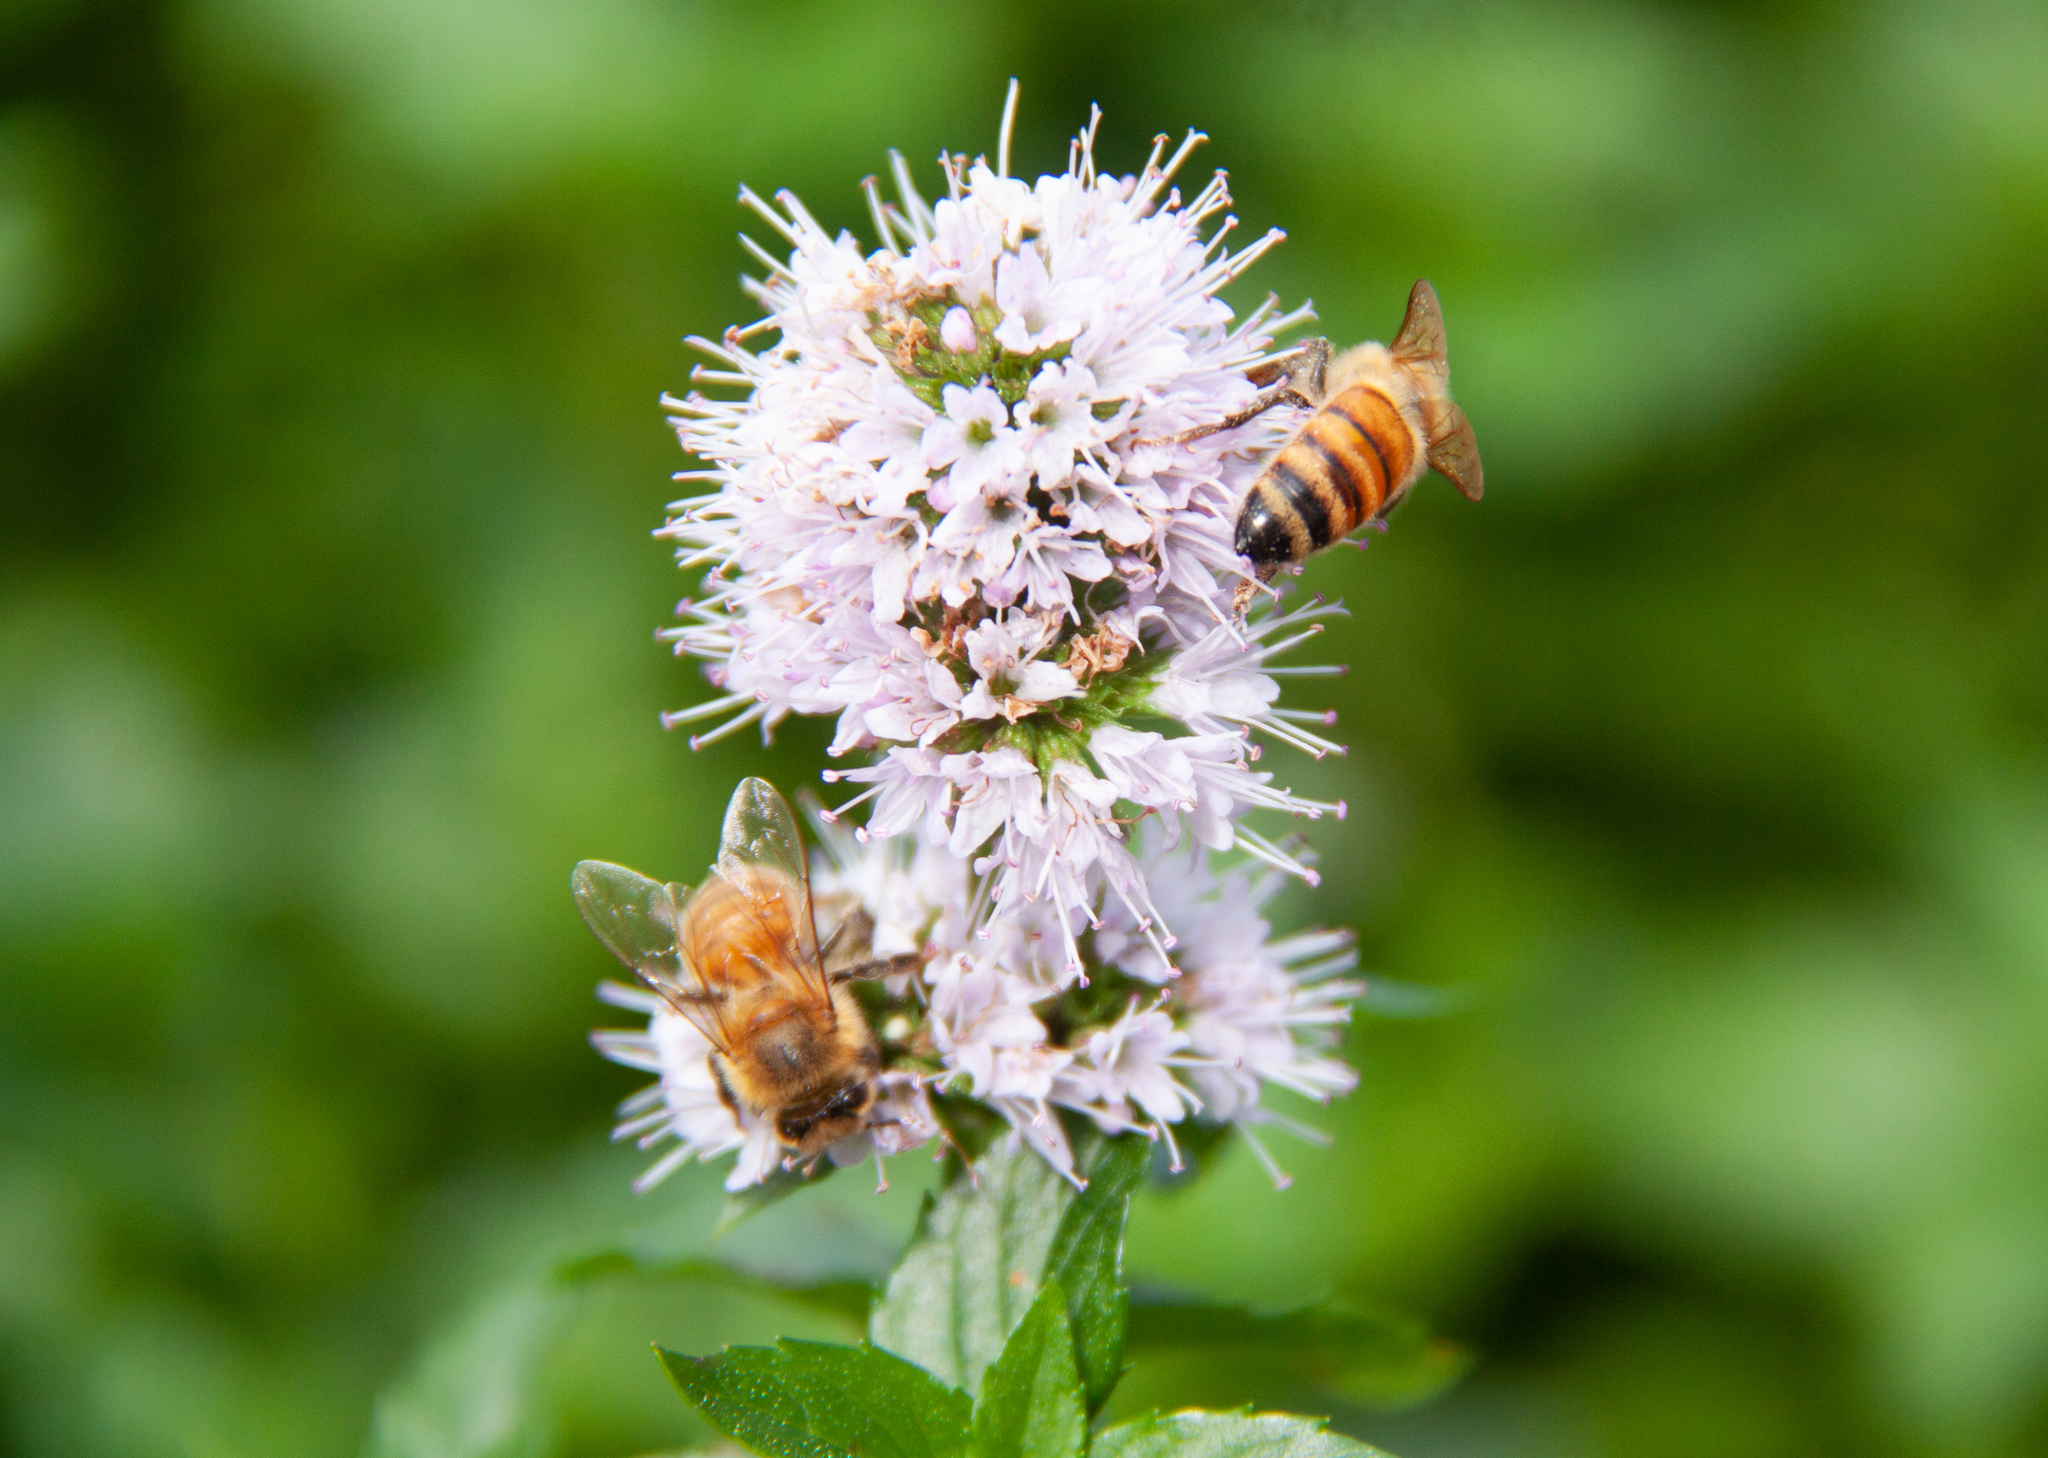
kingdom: Animalia
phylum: Arthropoda
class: Insecta
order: Hymenoptera
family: Apidae
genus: Apis
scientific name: Apis mellifera
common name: Honey bee
